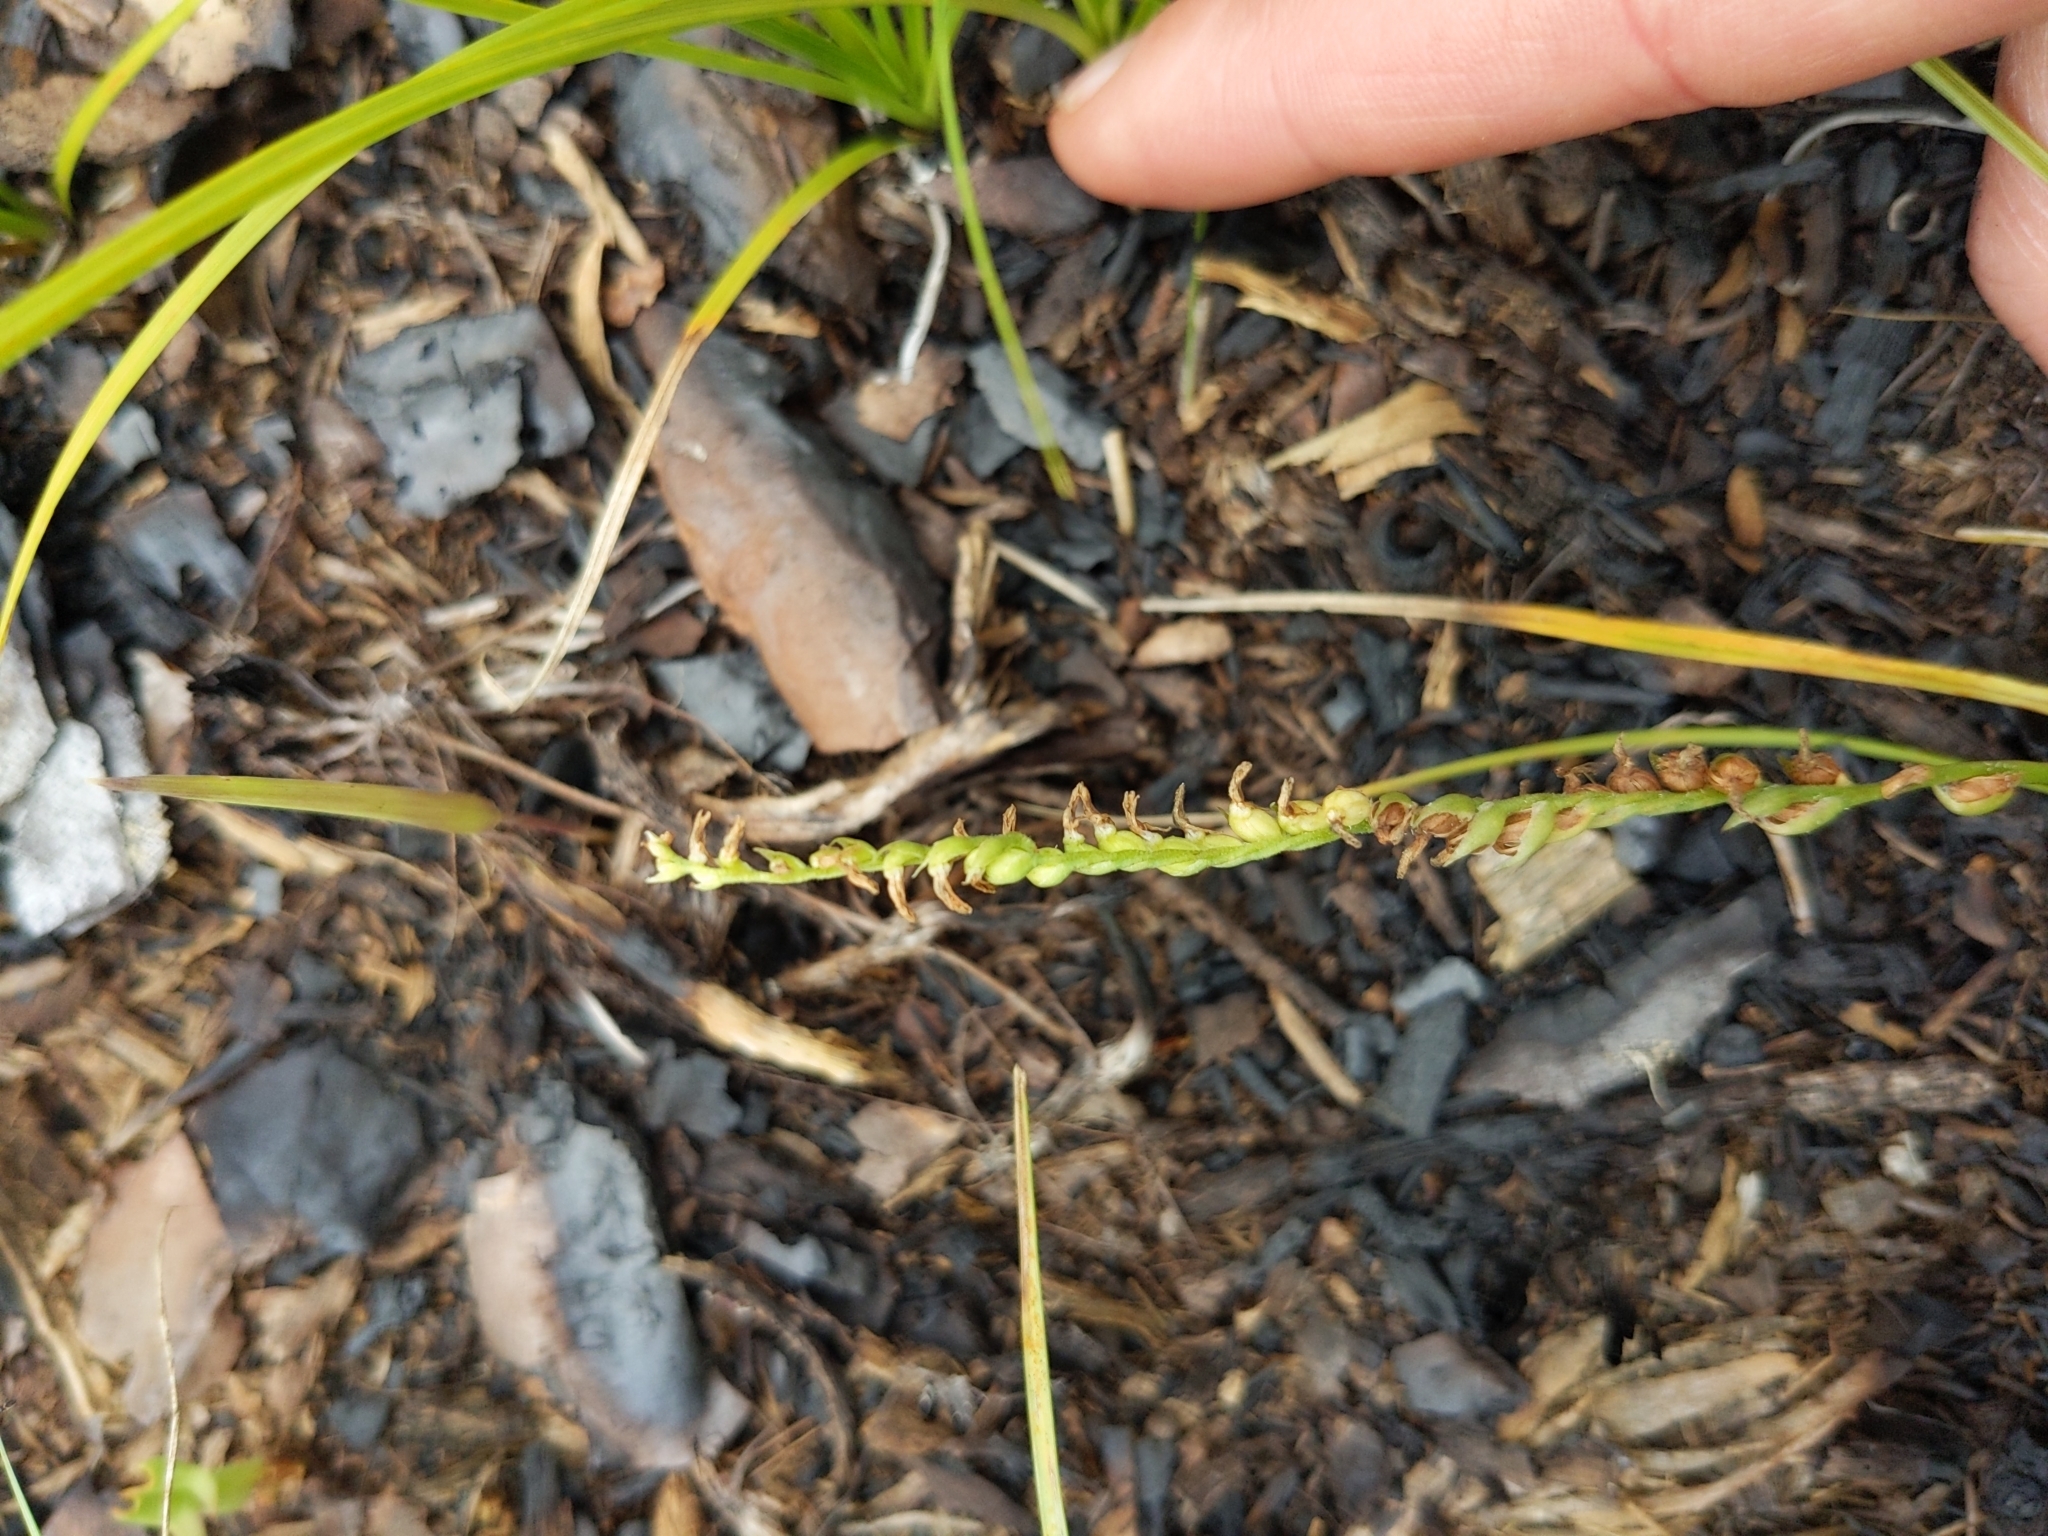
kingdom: Plantae
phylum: Tracheophyta
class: Liliopsida
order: Asparagales
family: Orchidaceae
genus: Spiranthes
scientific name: Spiranthes lacera
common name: Northern slender ladies'-tresses
